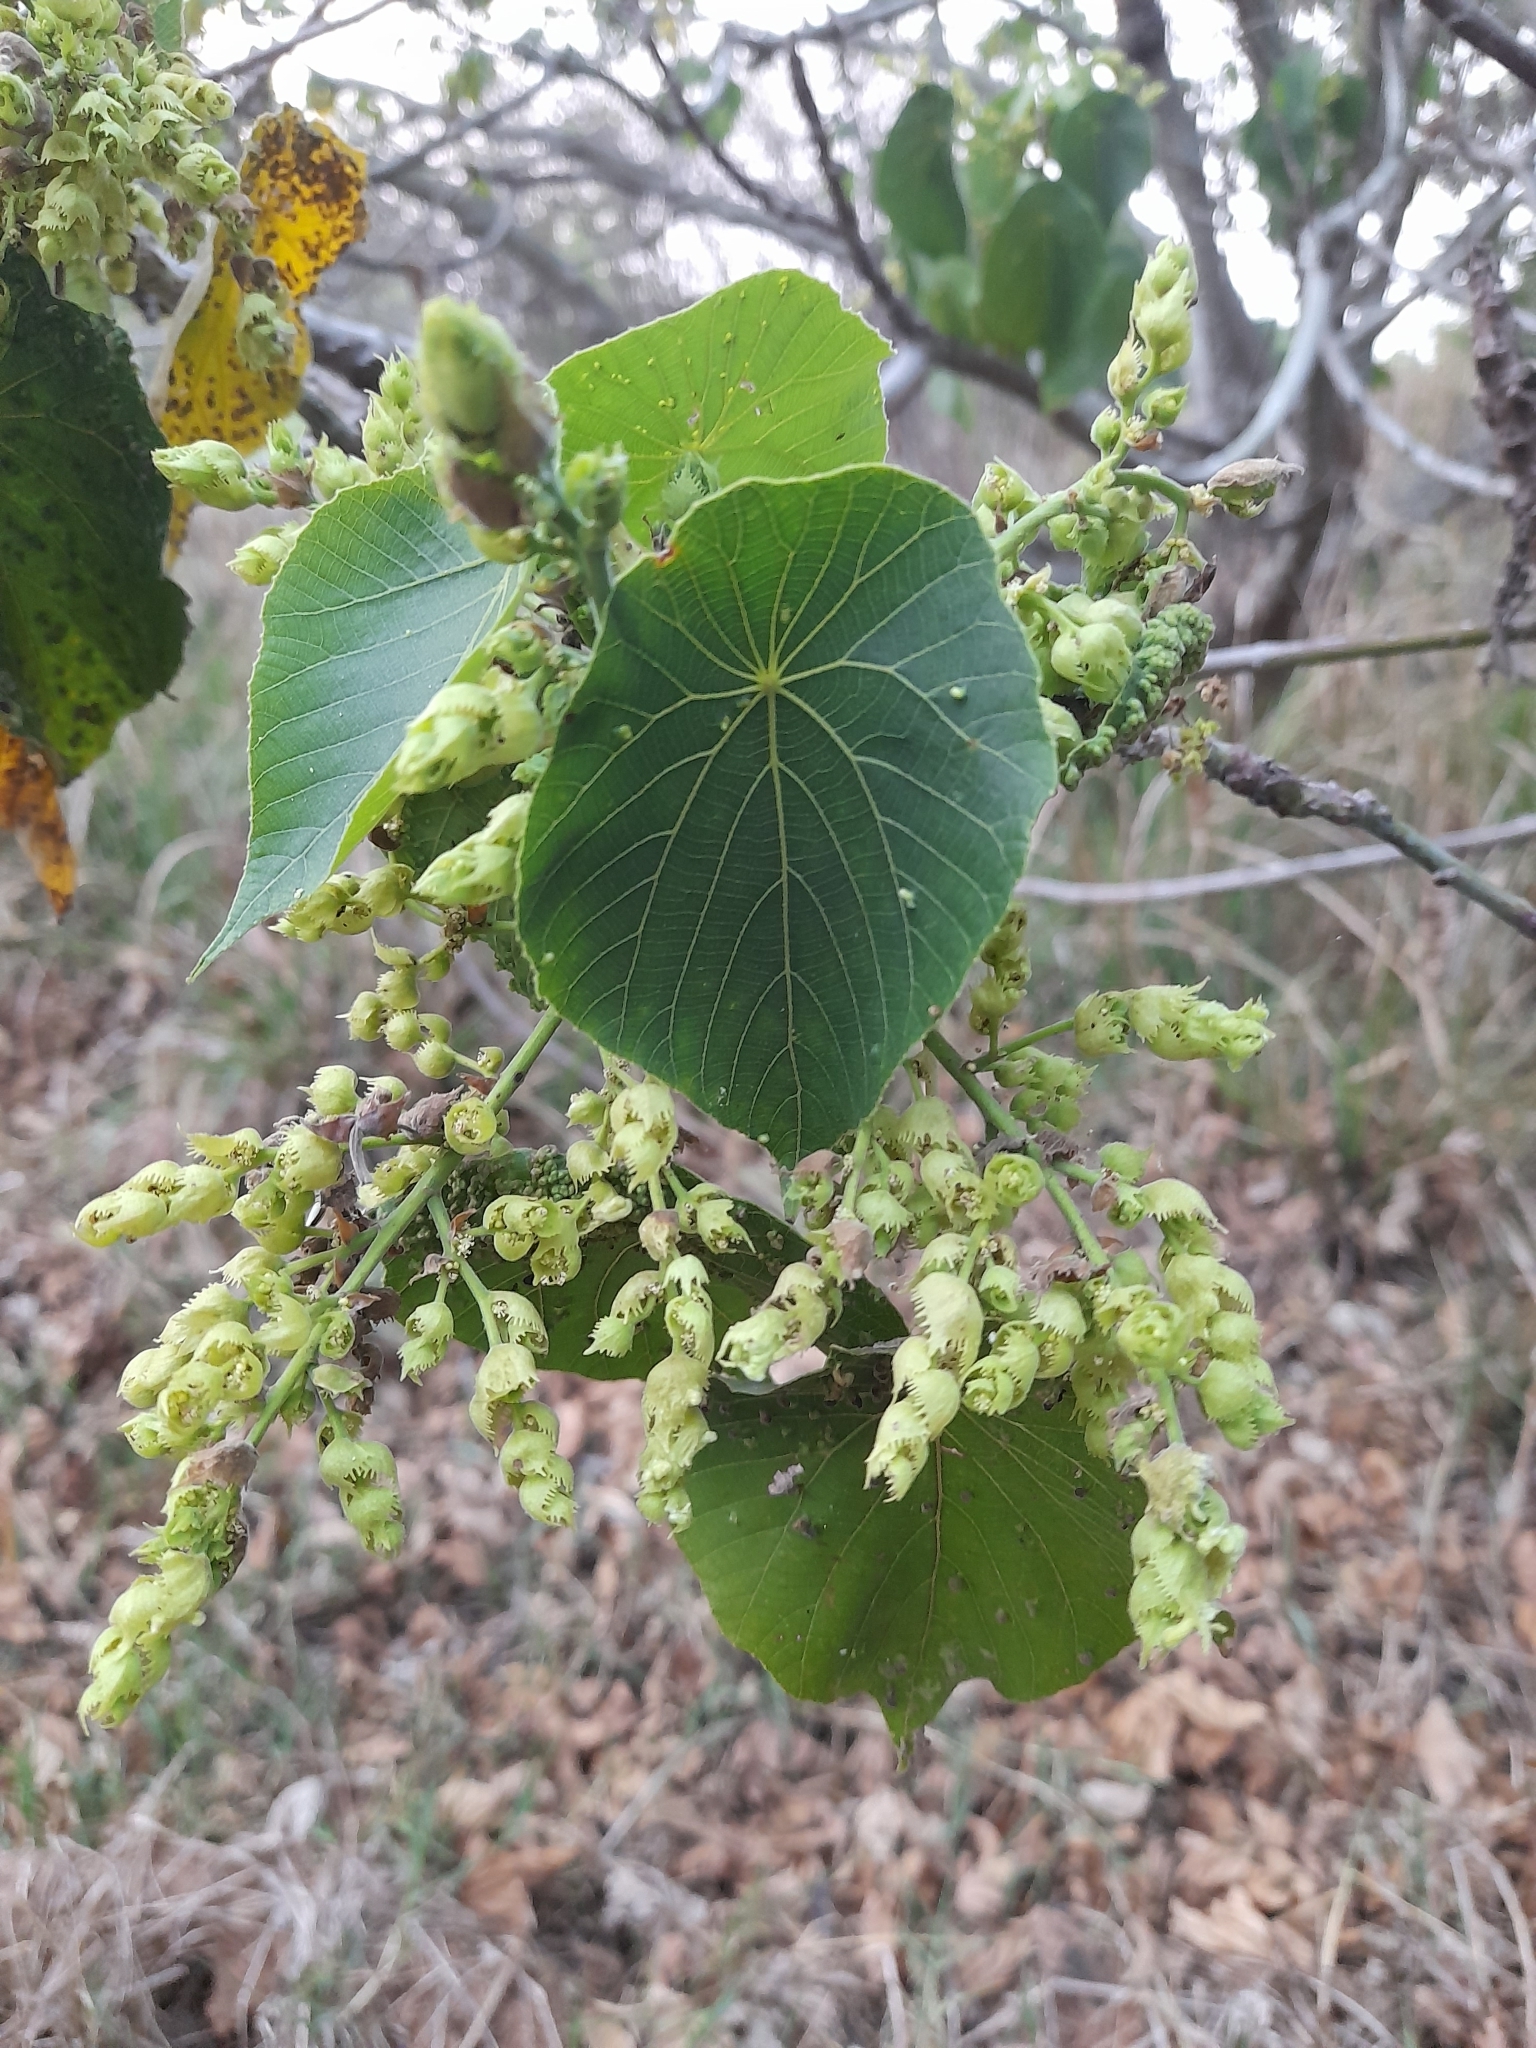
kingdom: Plantae
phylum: Tracheophyta
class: Magnoliopsida
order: Malpighiales
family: Euphorbiaceae
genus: Macaranga
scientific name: Macaranga tanarius
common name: Parasol leaf tree
